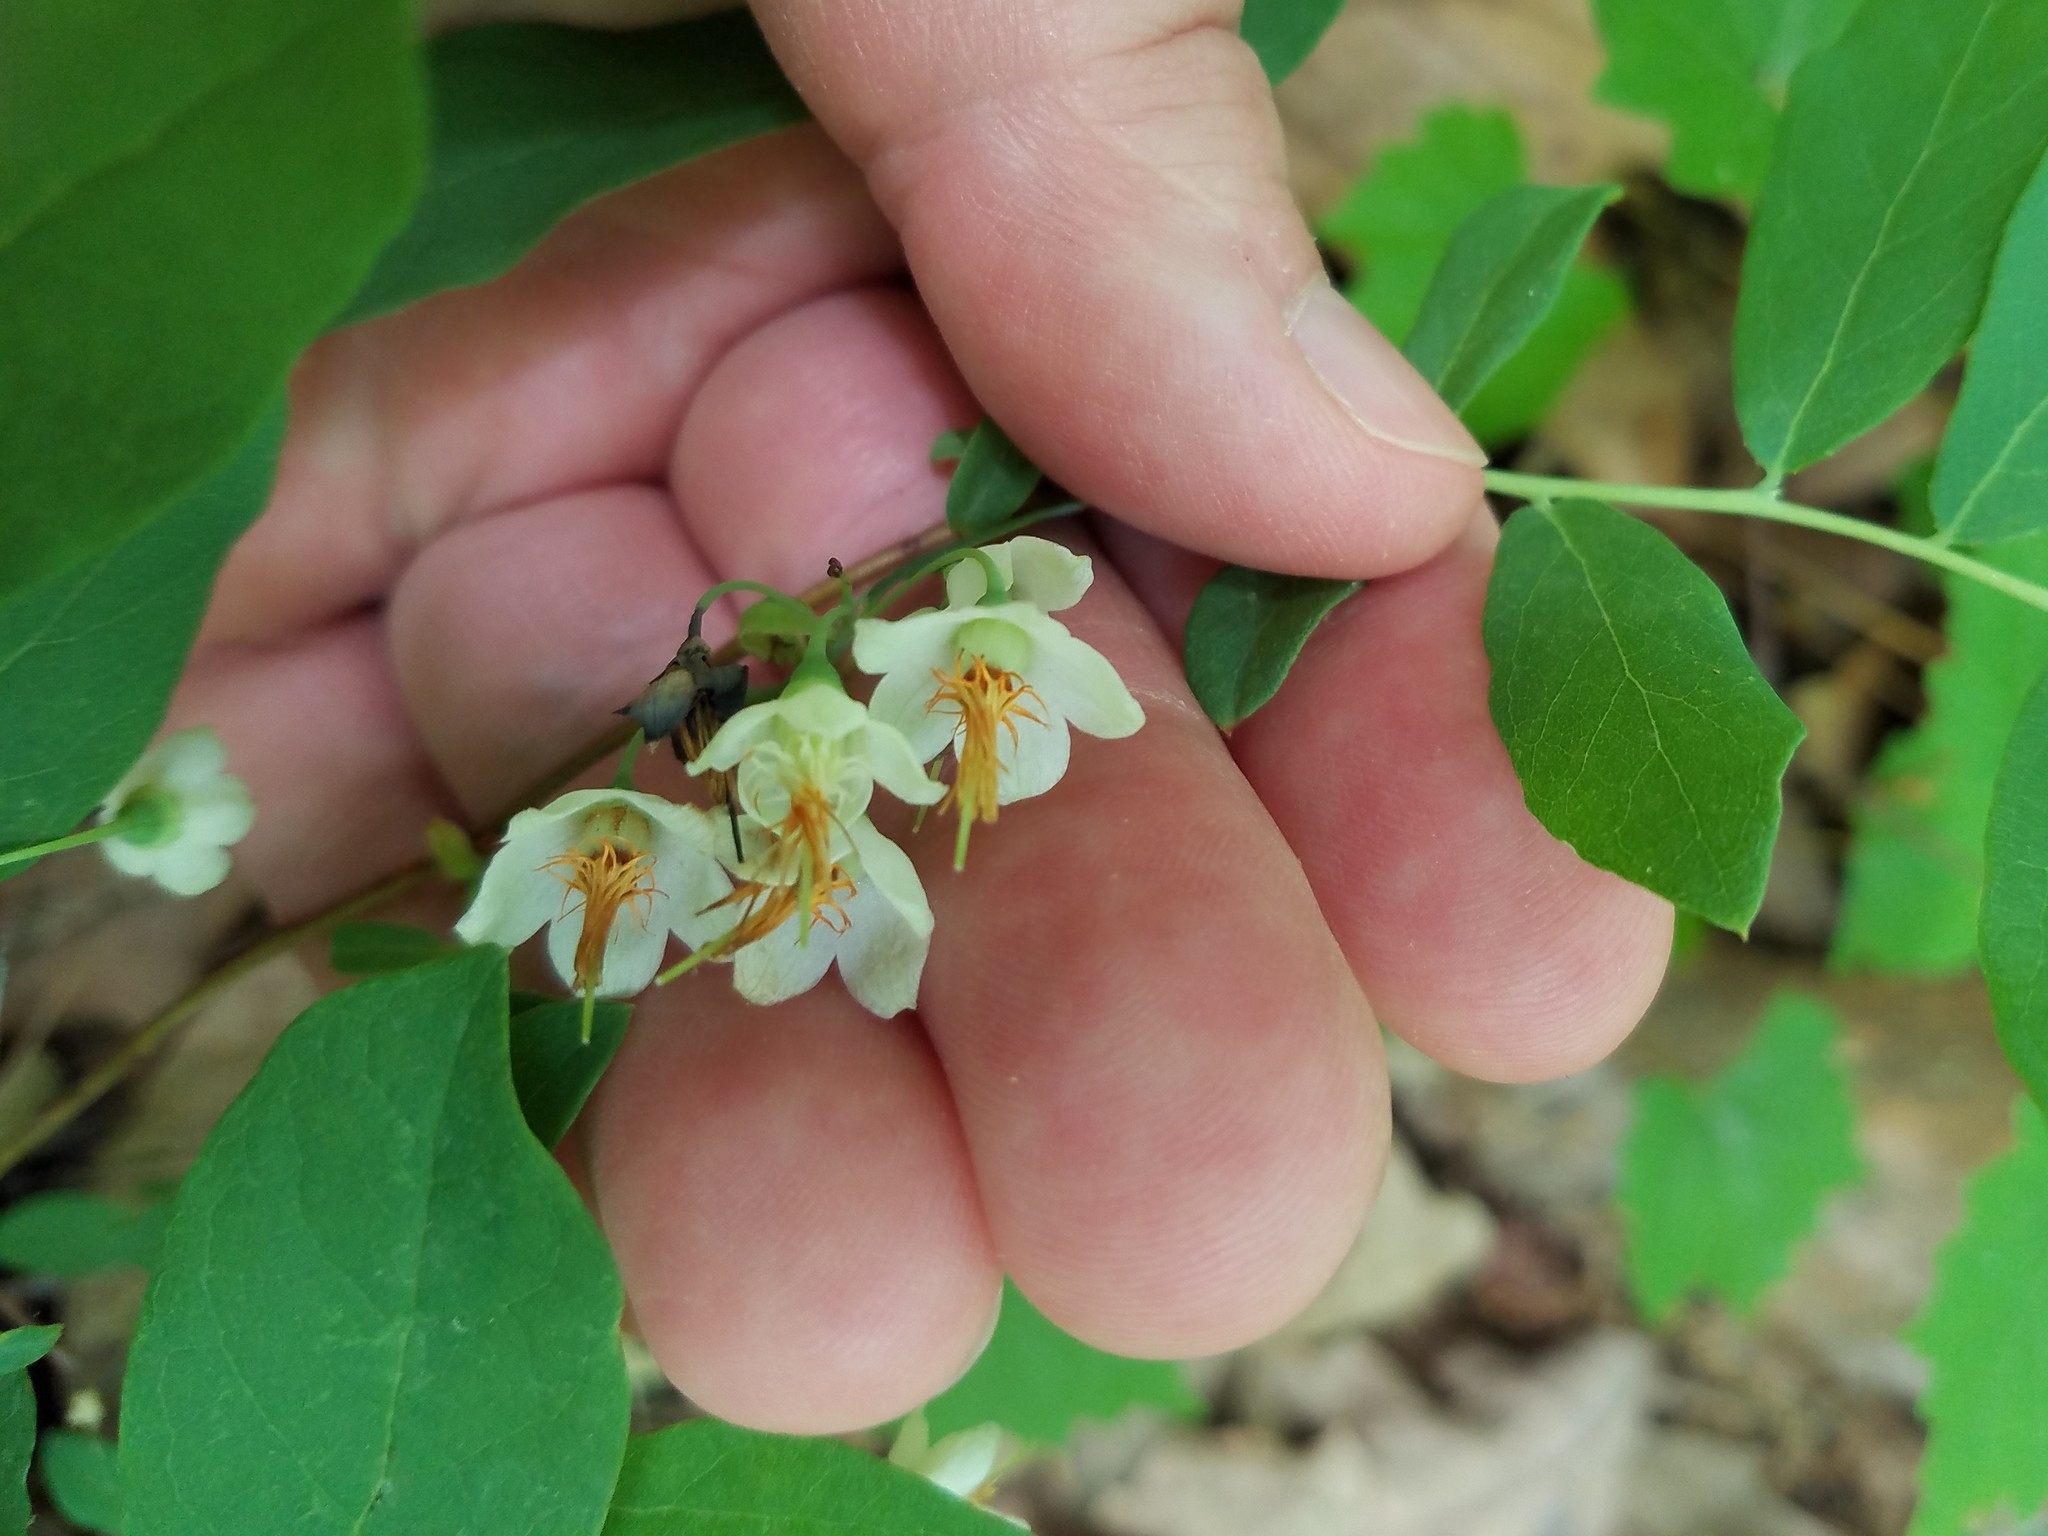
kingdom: Plantae
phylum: Tracheophyta
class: Magnoliopsida
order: Ericales
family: Ericaceae
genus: Vaccinium
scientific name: Vaccinium stamineum
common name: Deerberry
